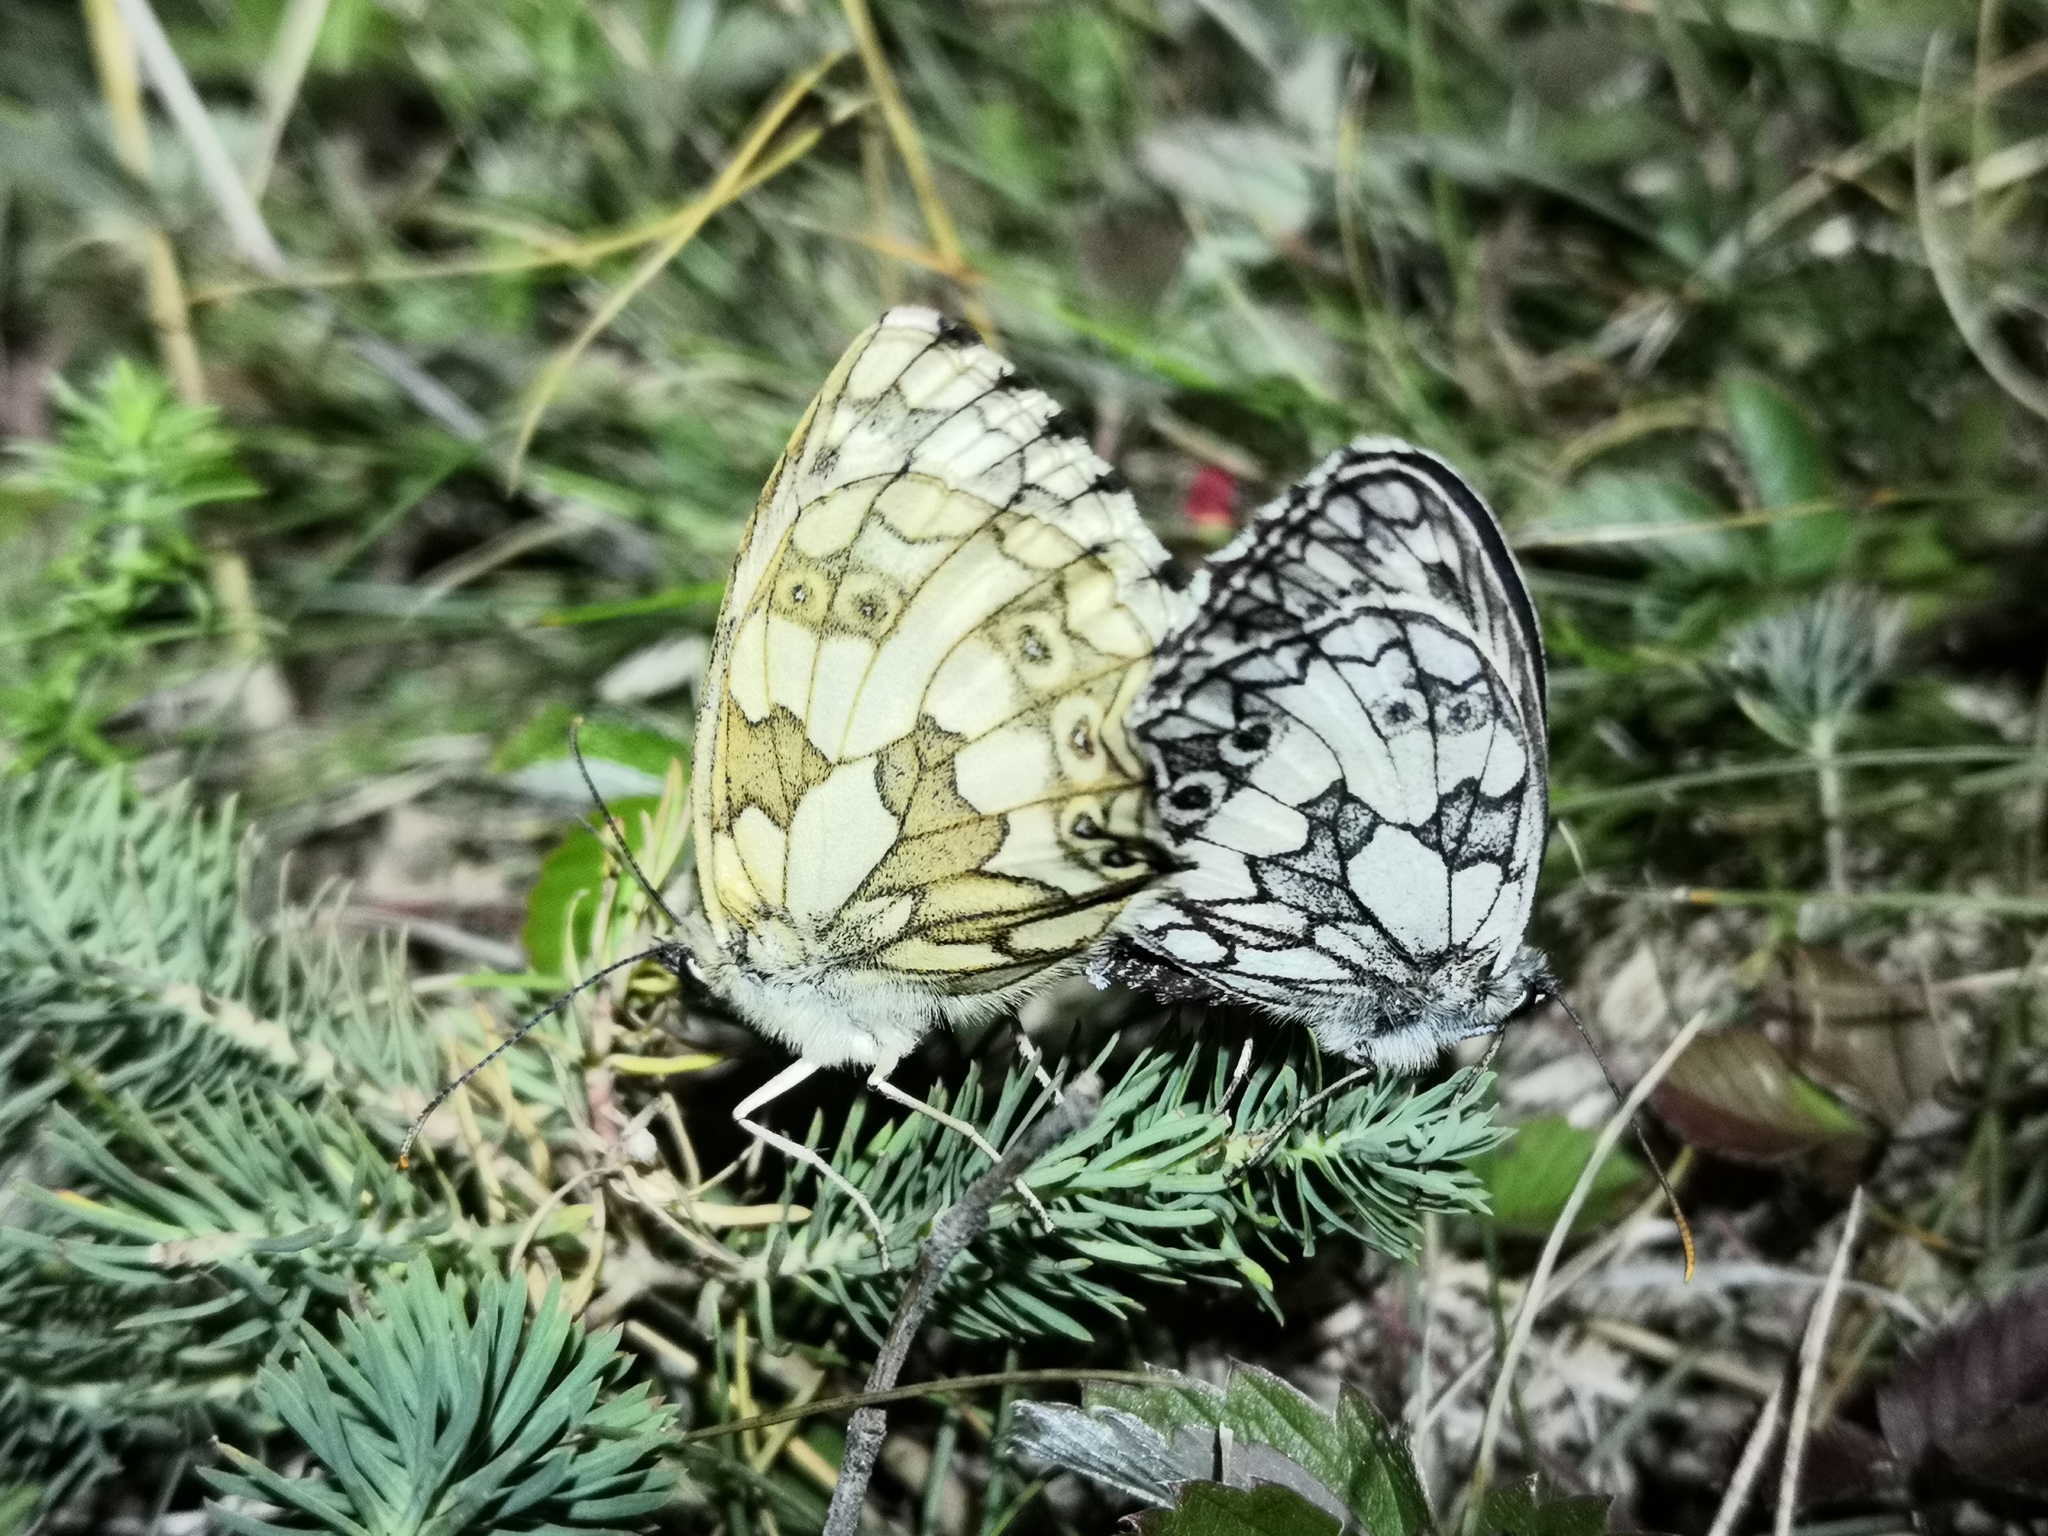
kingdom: Animalia
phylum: Arthropoda
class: Insecta
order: Lepidoptera
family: Nymphalidae
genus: Melanargia
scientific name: Melanargia galathea
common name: Marbled white
